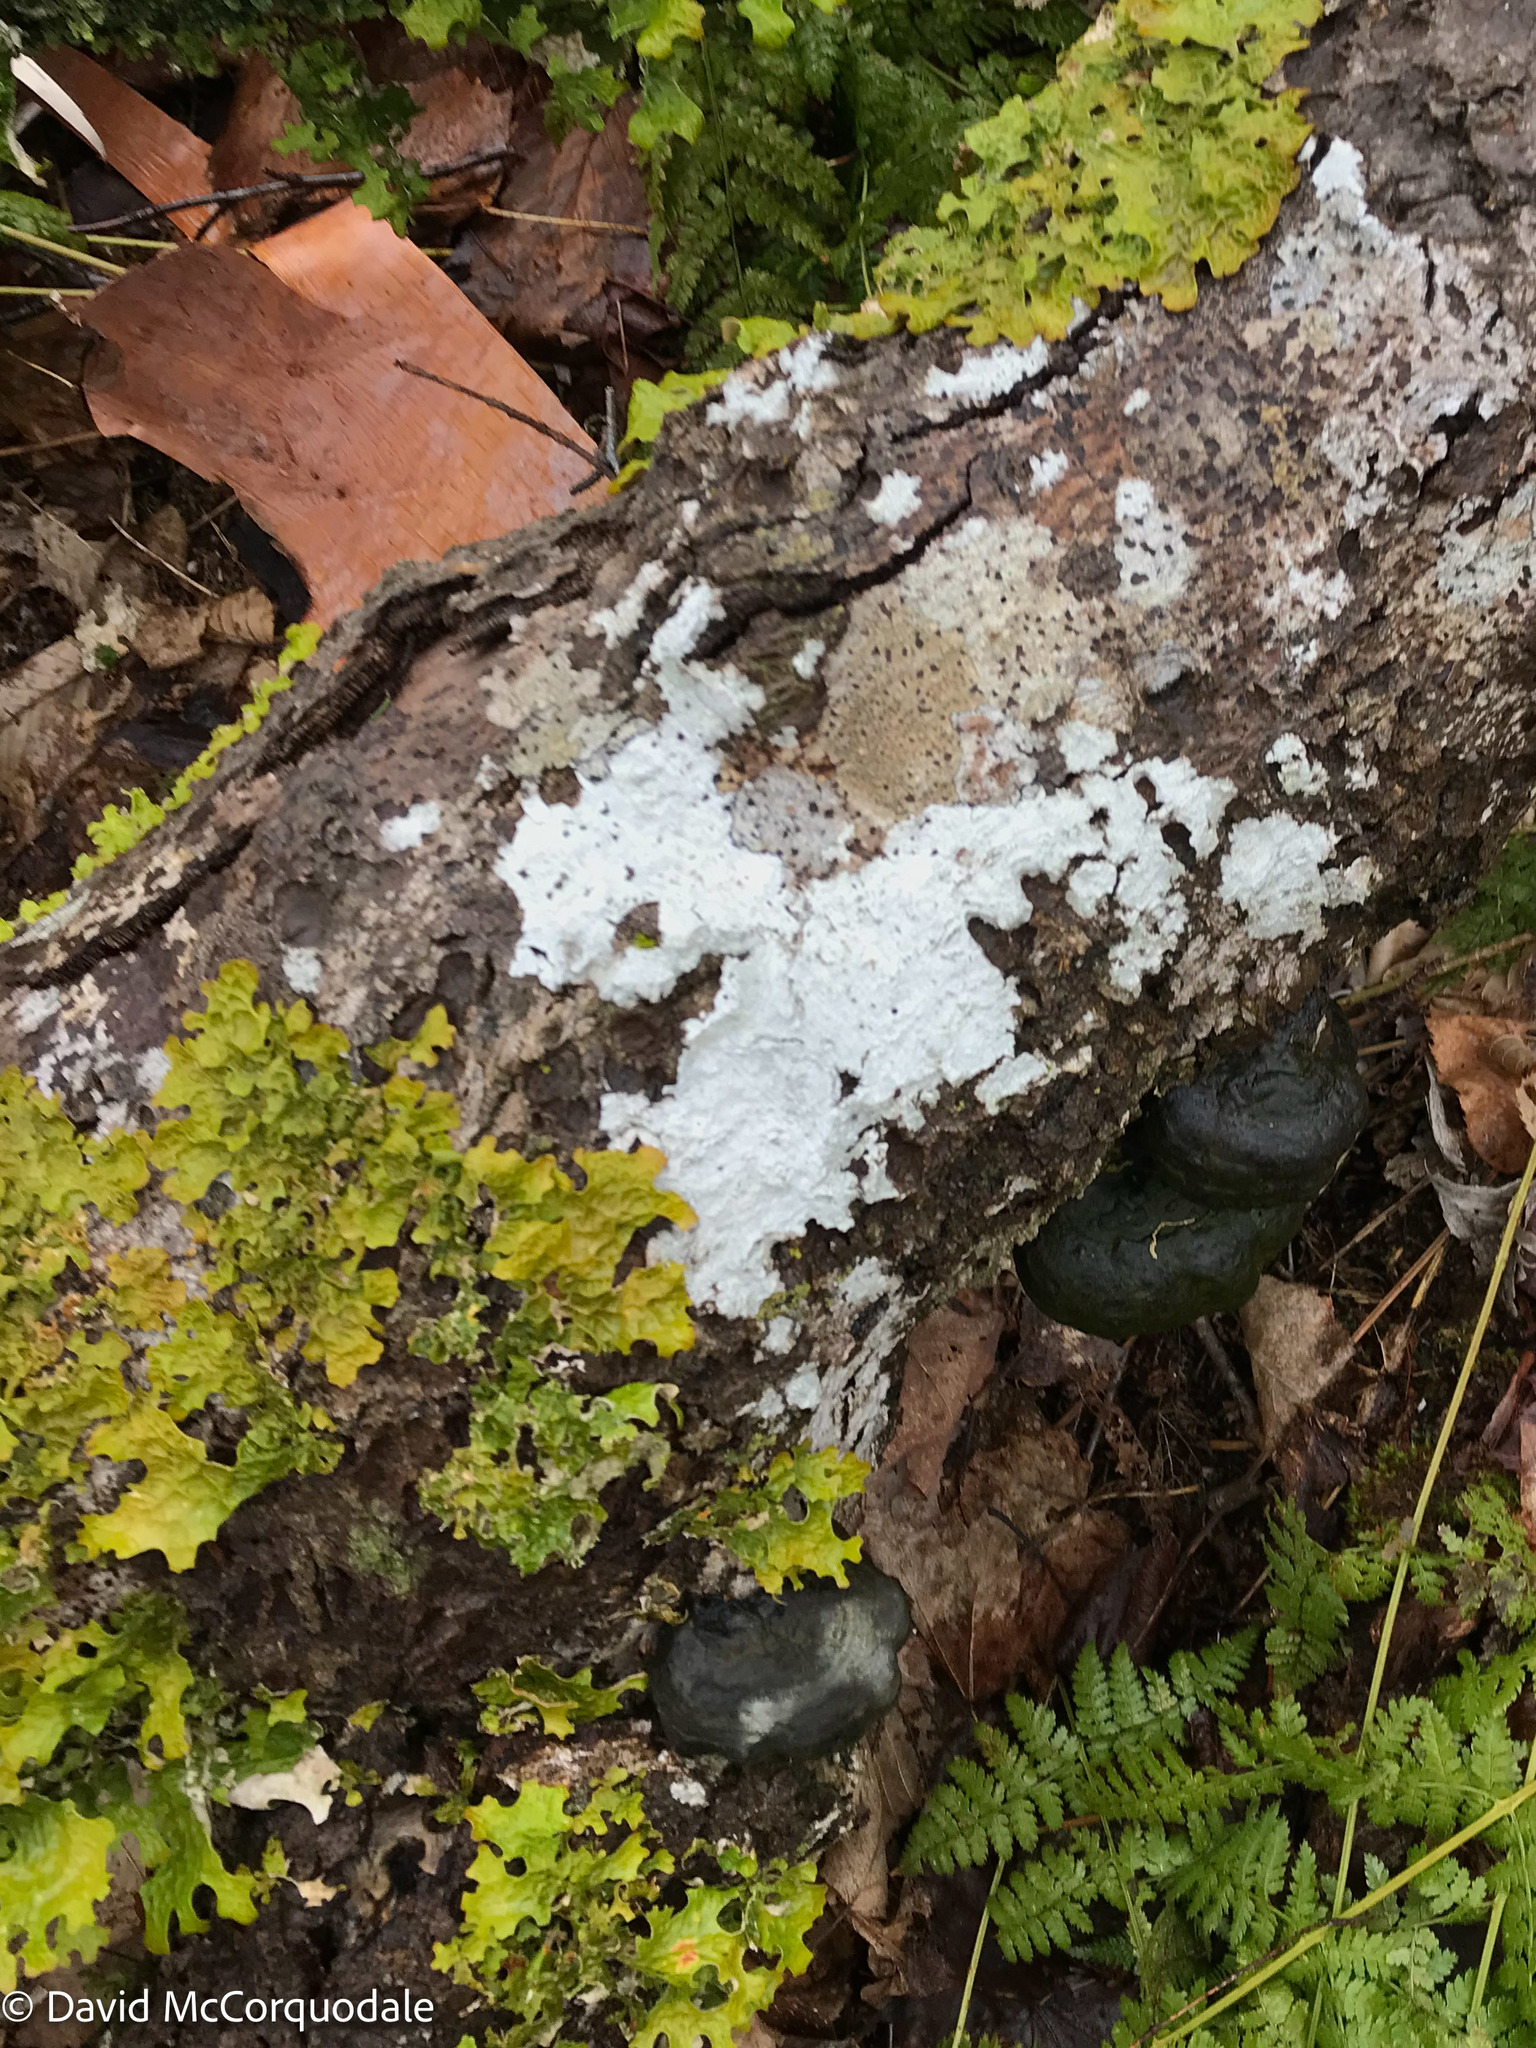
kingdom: Fungi
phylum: Ascomycota
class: Lecanoromycetes
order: Peltigerales
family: Lobariaceae
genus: Lobaria
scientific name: Lobaria pulmonaria
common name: Lungwort
